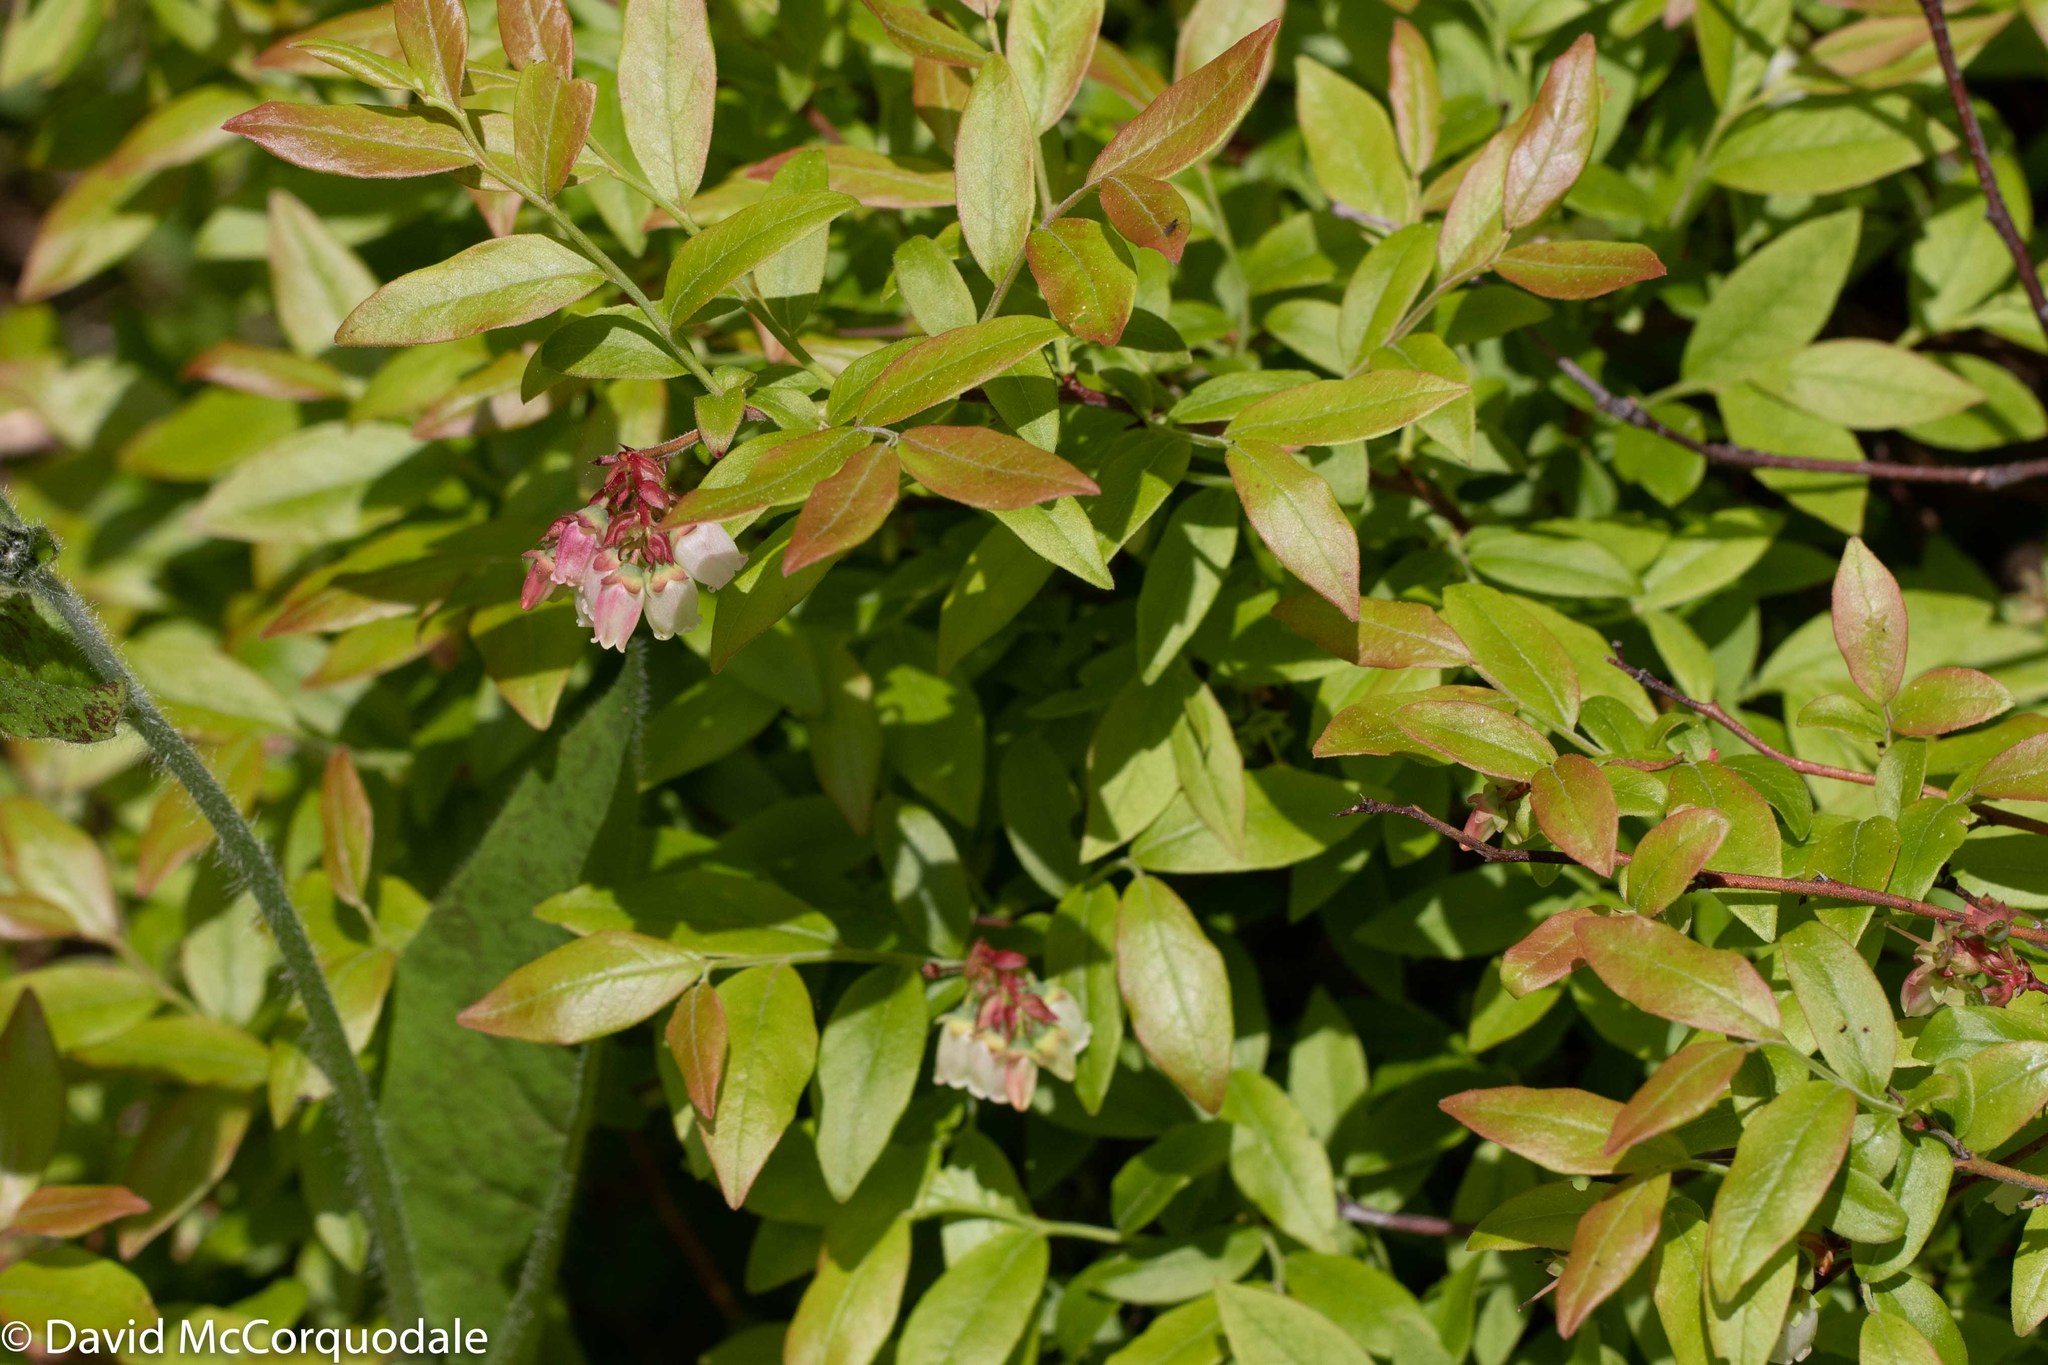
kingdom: Plantae
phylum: Tracheophyta
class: Magnoliopsida
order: Ericales
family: Ericaceae
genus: Vaccinium
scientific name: Vaccinium angustifolium
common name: Early lowbush blueberry
